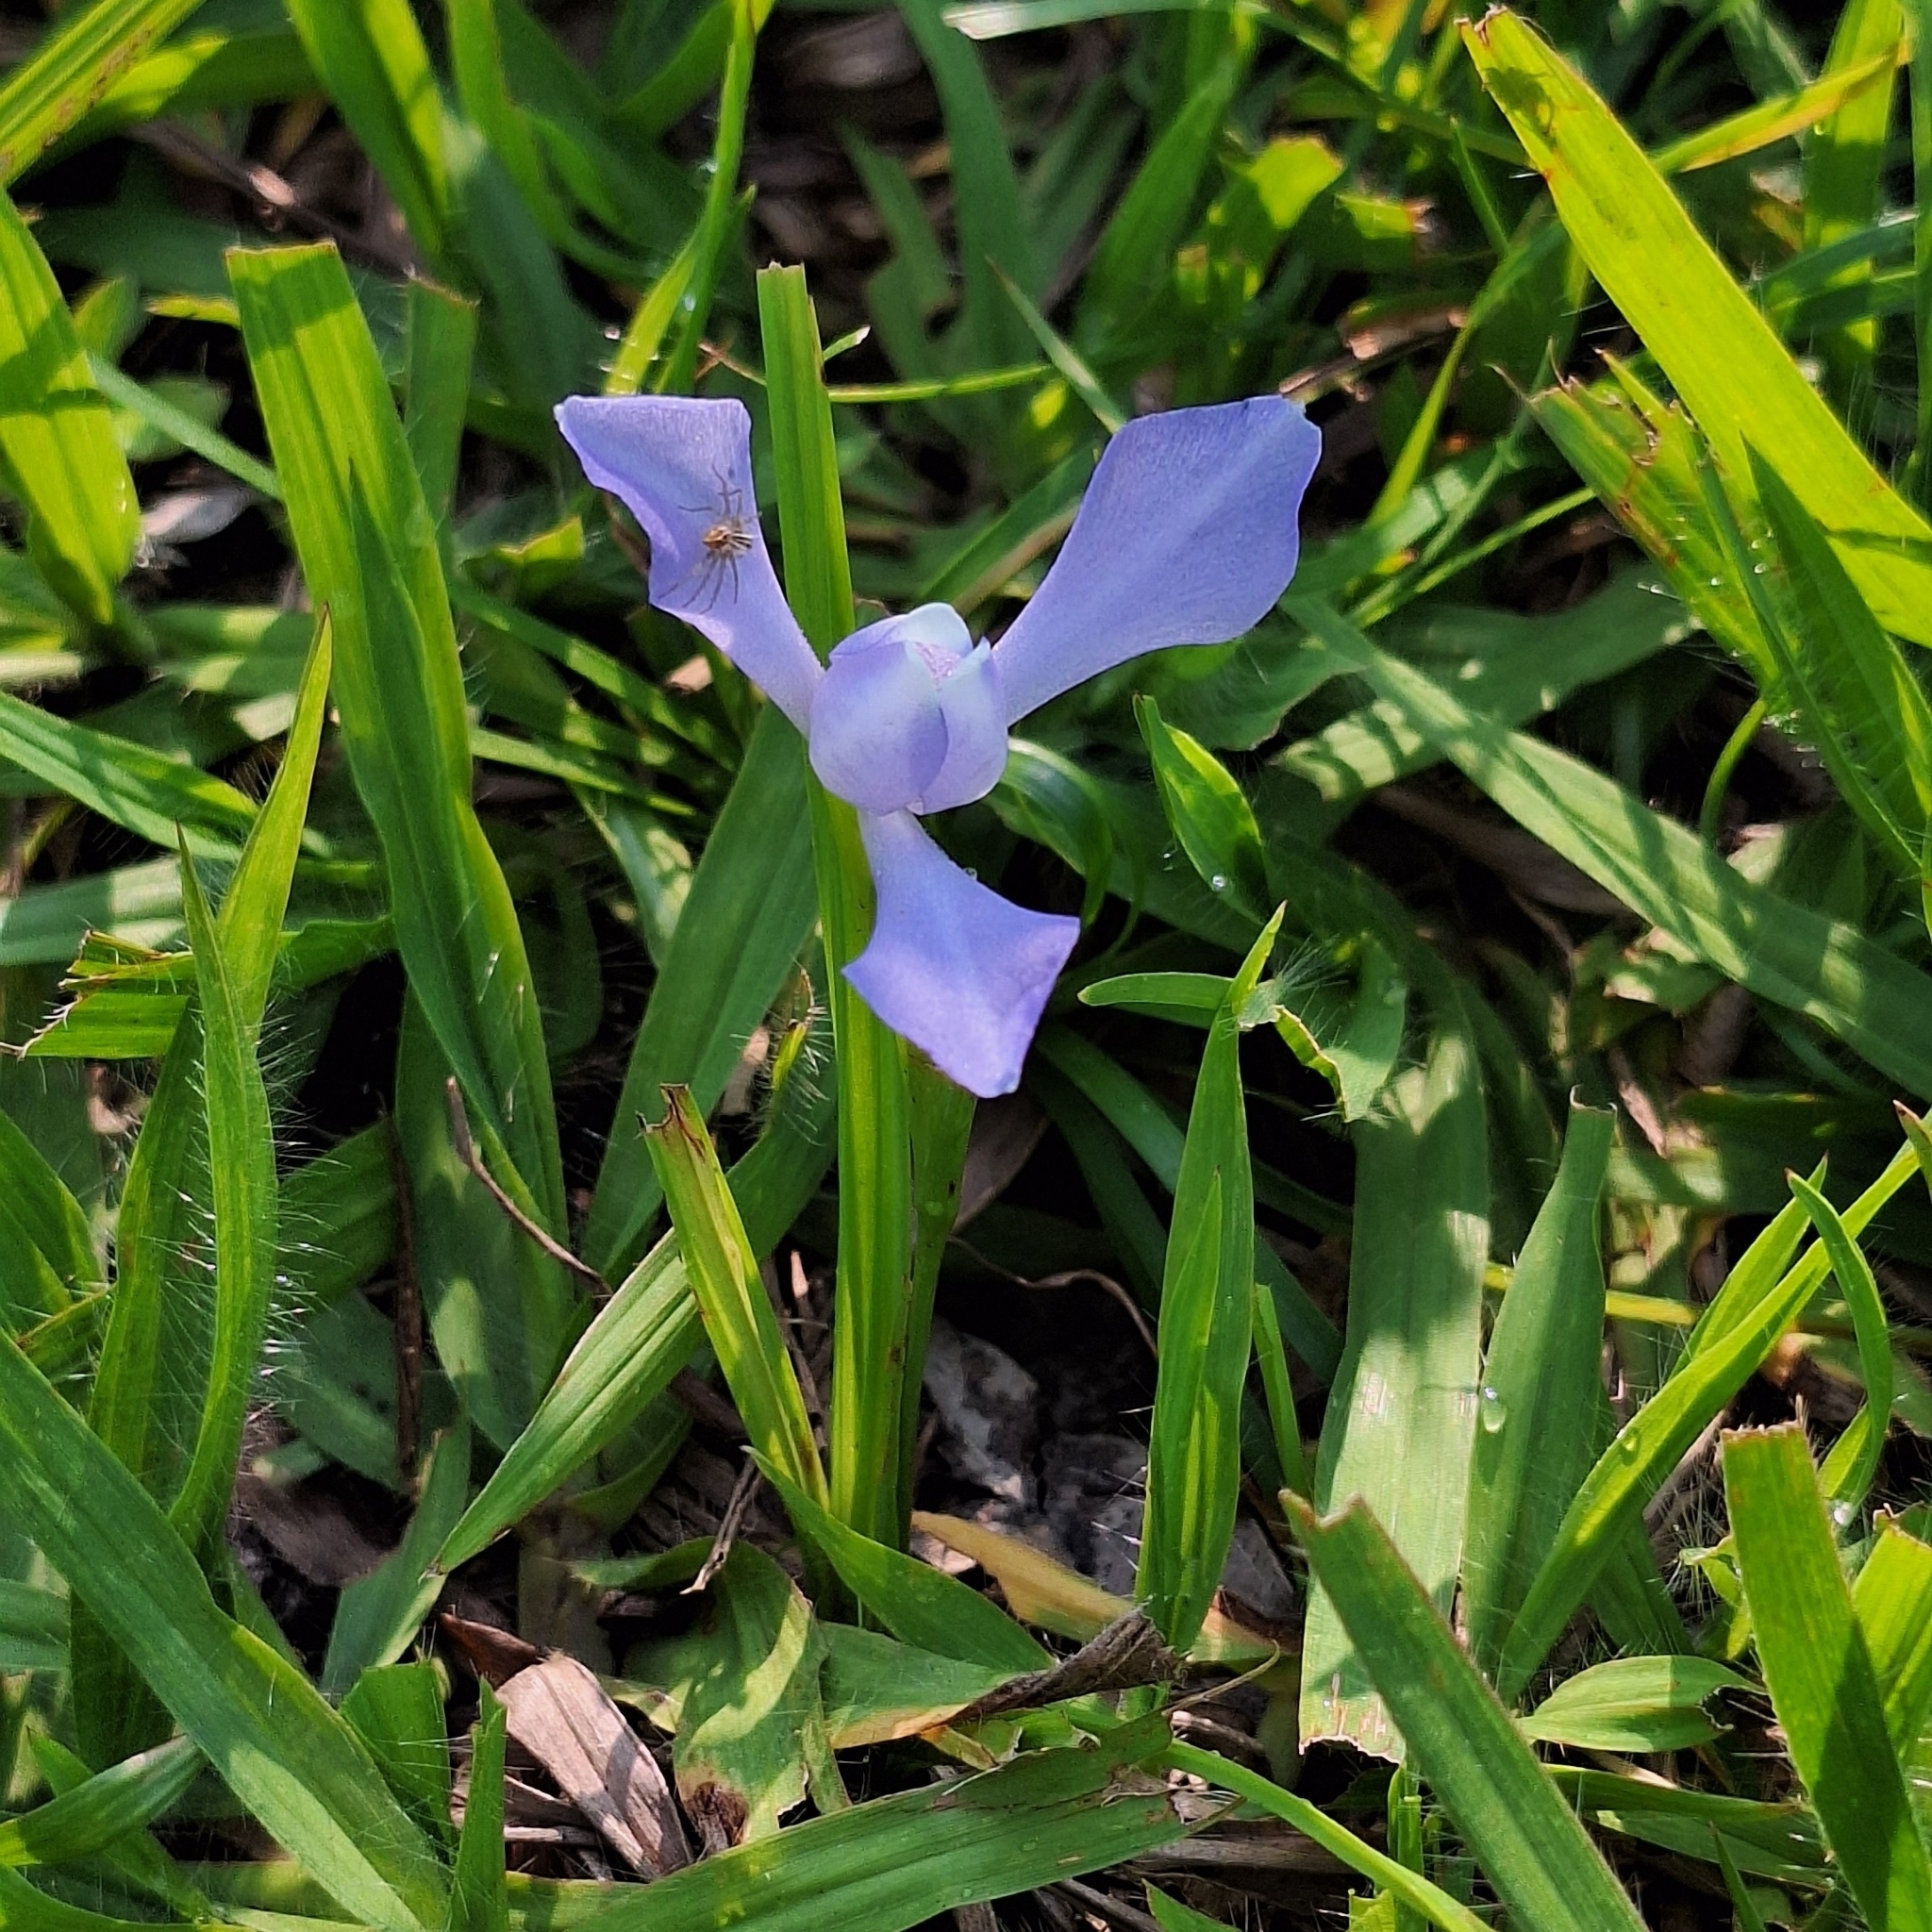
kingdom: Plantae
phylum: Tracheophyta
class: Liliopsida
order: Asparagales
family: Iridaceae
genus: Cipura
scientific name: Cipura paludosa
